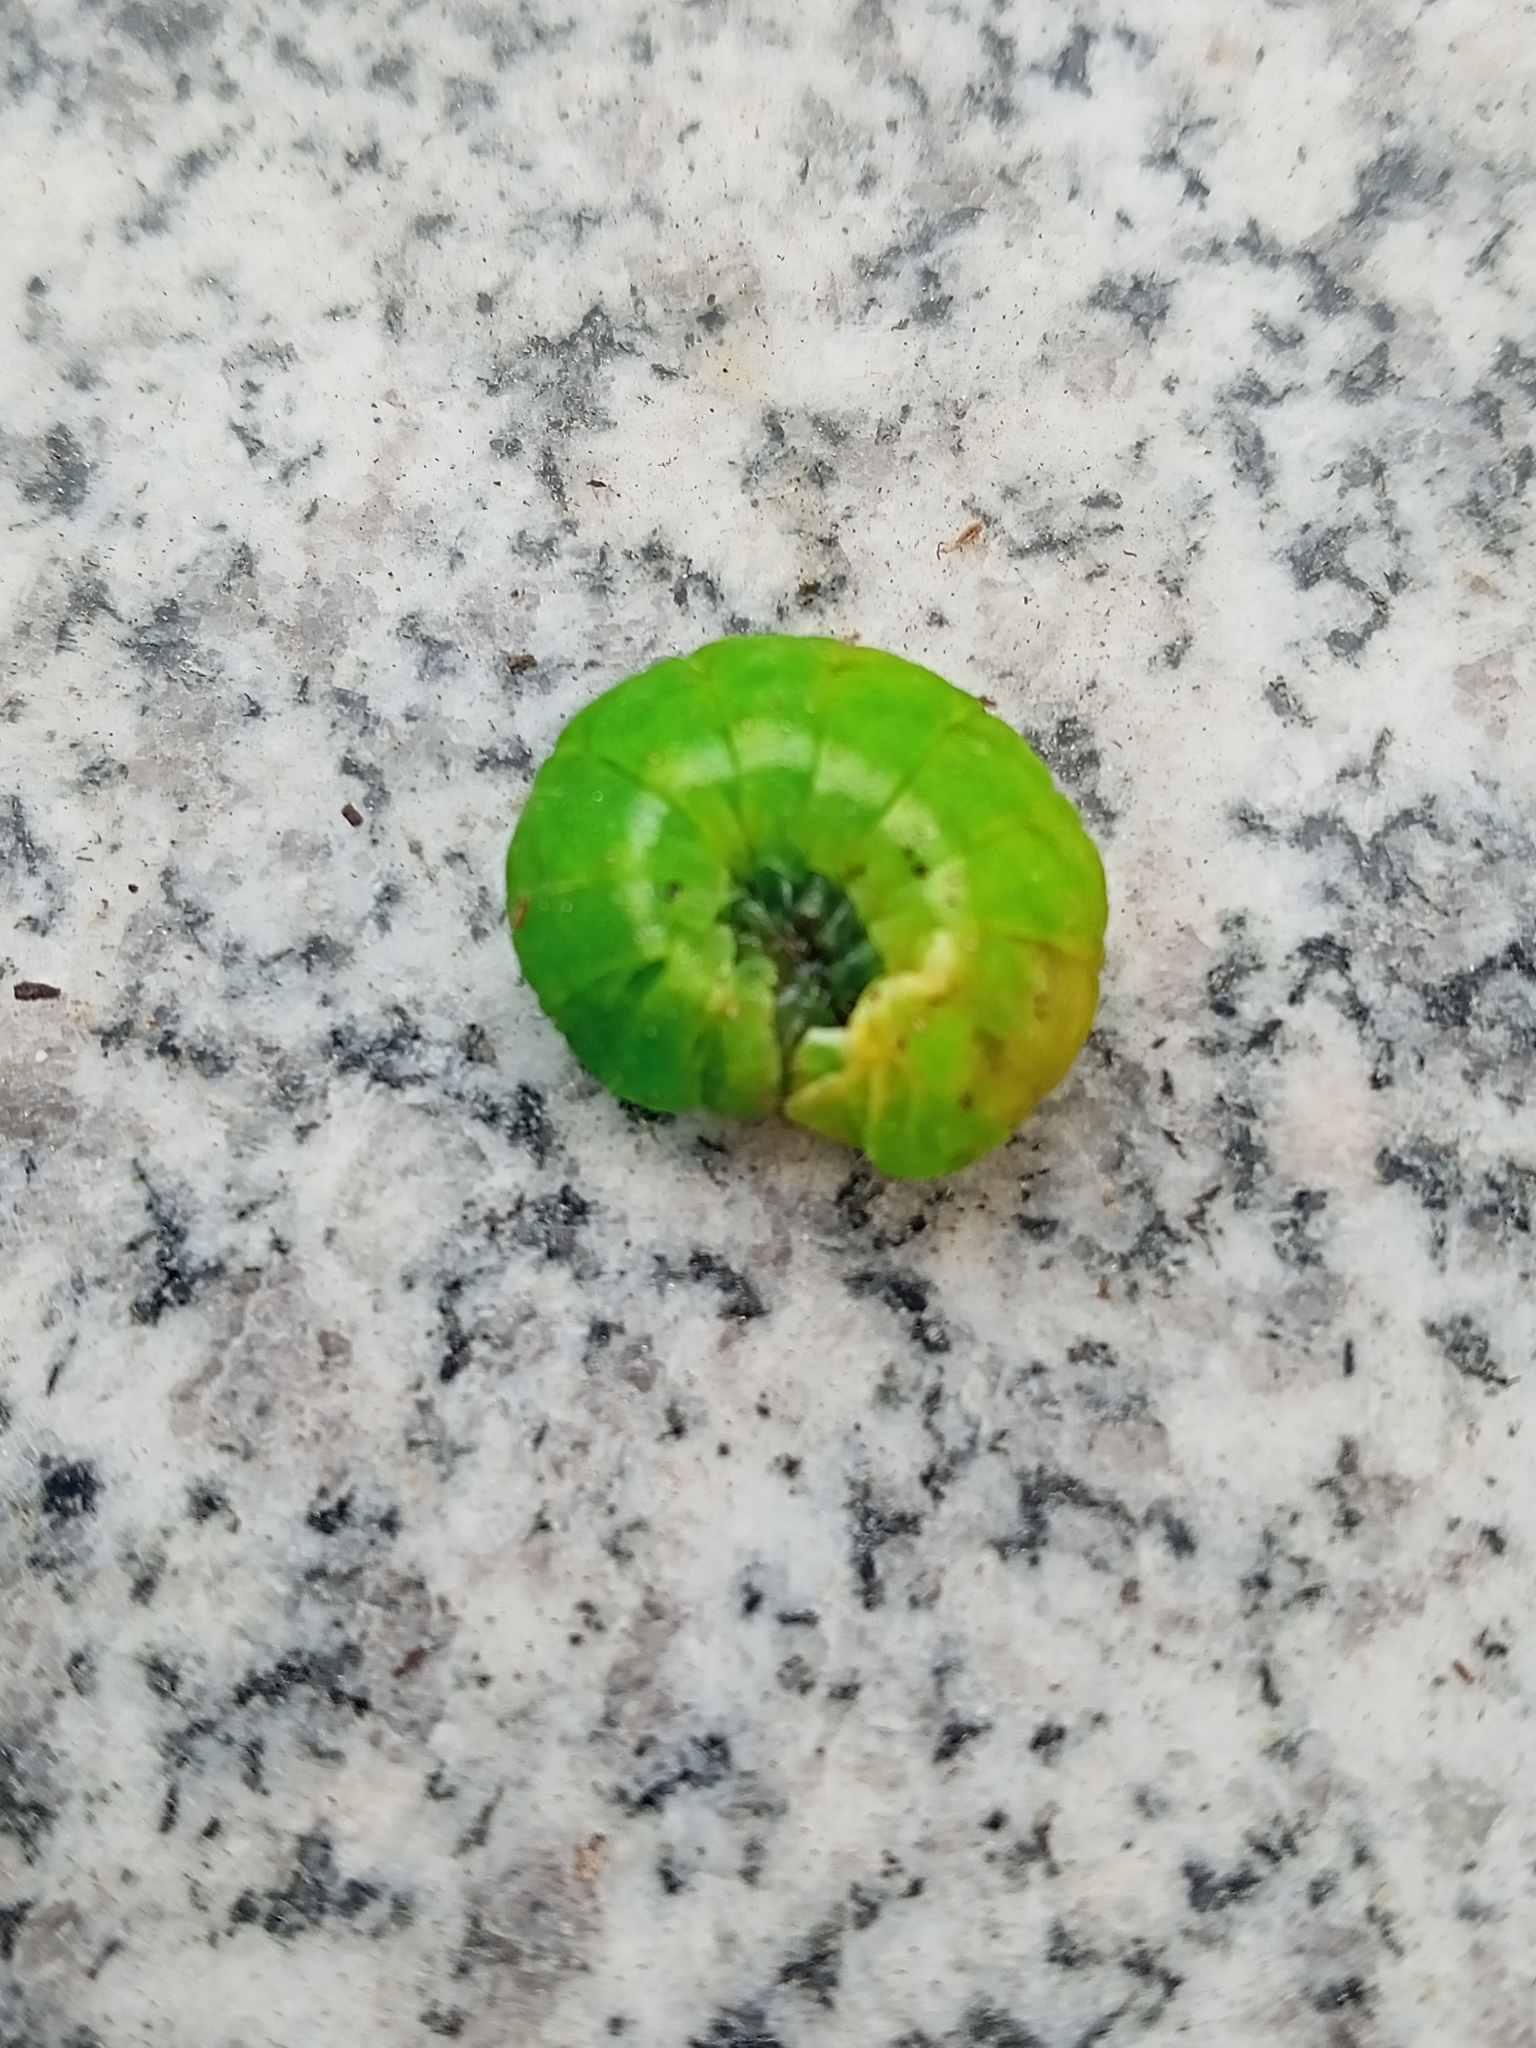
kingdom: Animalia
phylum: Arthropoda
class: Insecta
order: Lepidoptera
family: Noctuidae
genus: Phlogophora
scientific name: Phlogophora meticulosa
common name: Angle shades
